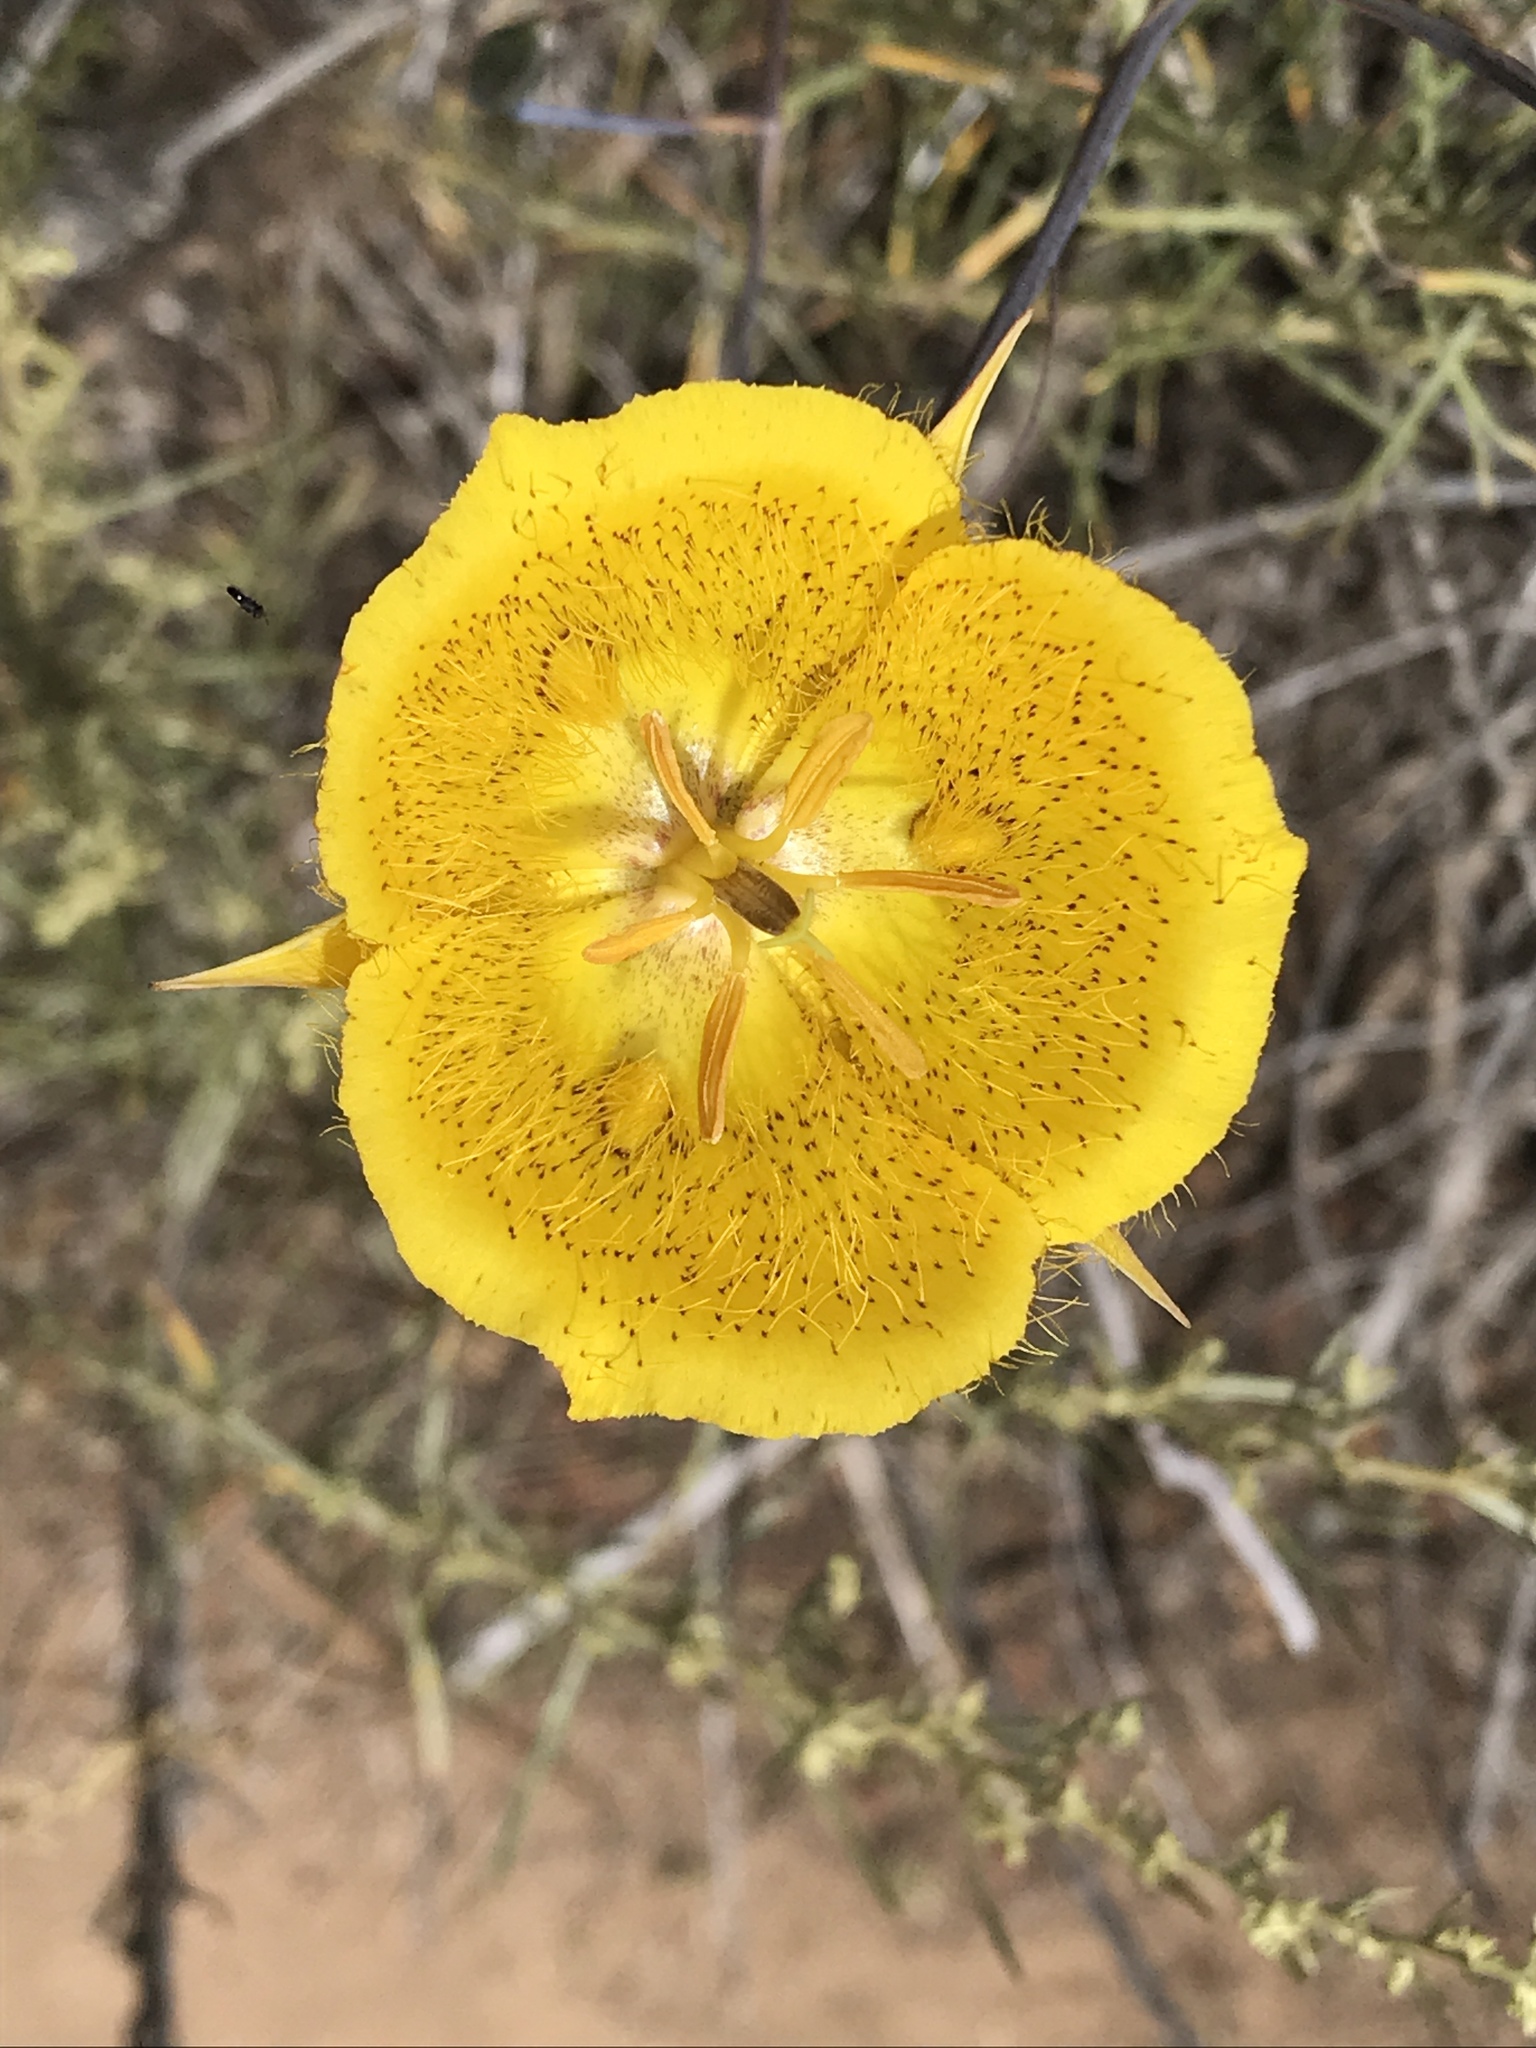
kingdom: Plantae
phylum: Tracheophyta
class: Liliopsida
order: Liliales
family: Liliaceae
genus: Calochortus
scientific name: Calochortus weedii
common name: Weed's mariposa-lily
